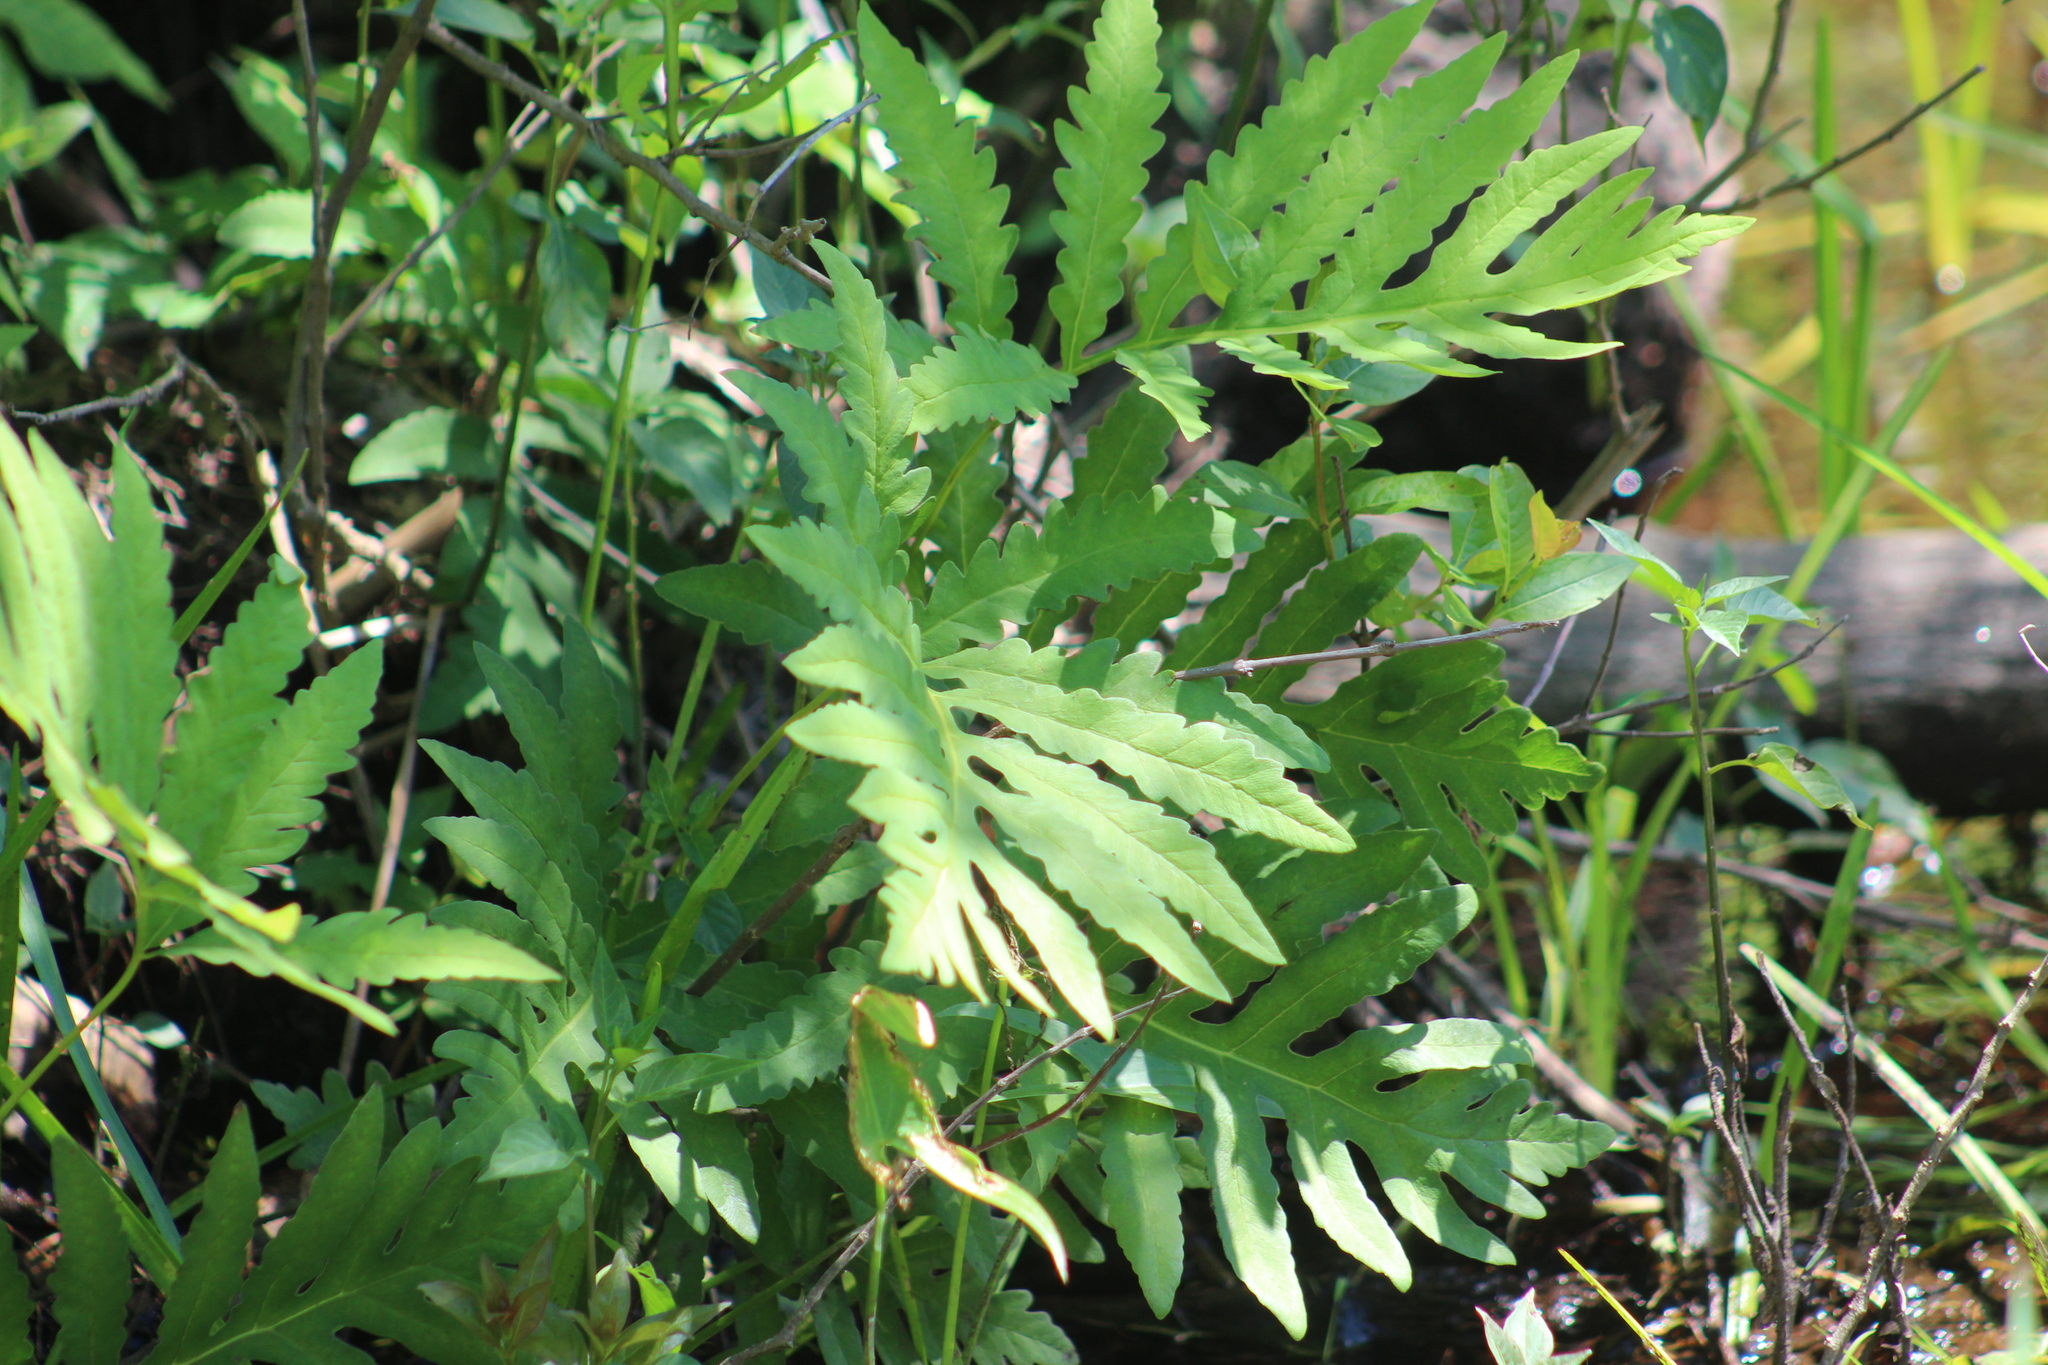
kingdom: Plantae
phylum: Tracheophyta
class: Polypodiopsida
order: Polypodiales
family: Onocleaceae
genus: Onoclea
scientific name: Onoclea sensibilis
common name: Sensitive fern
